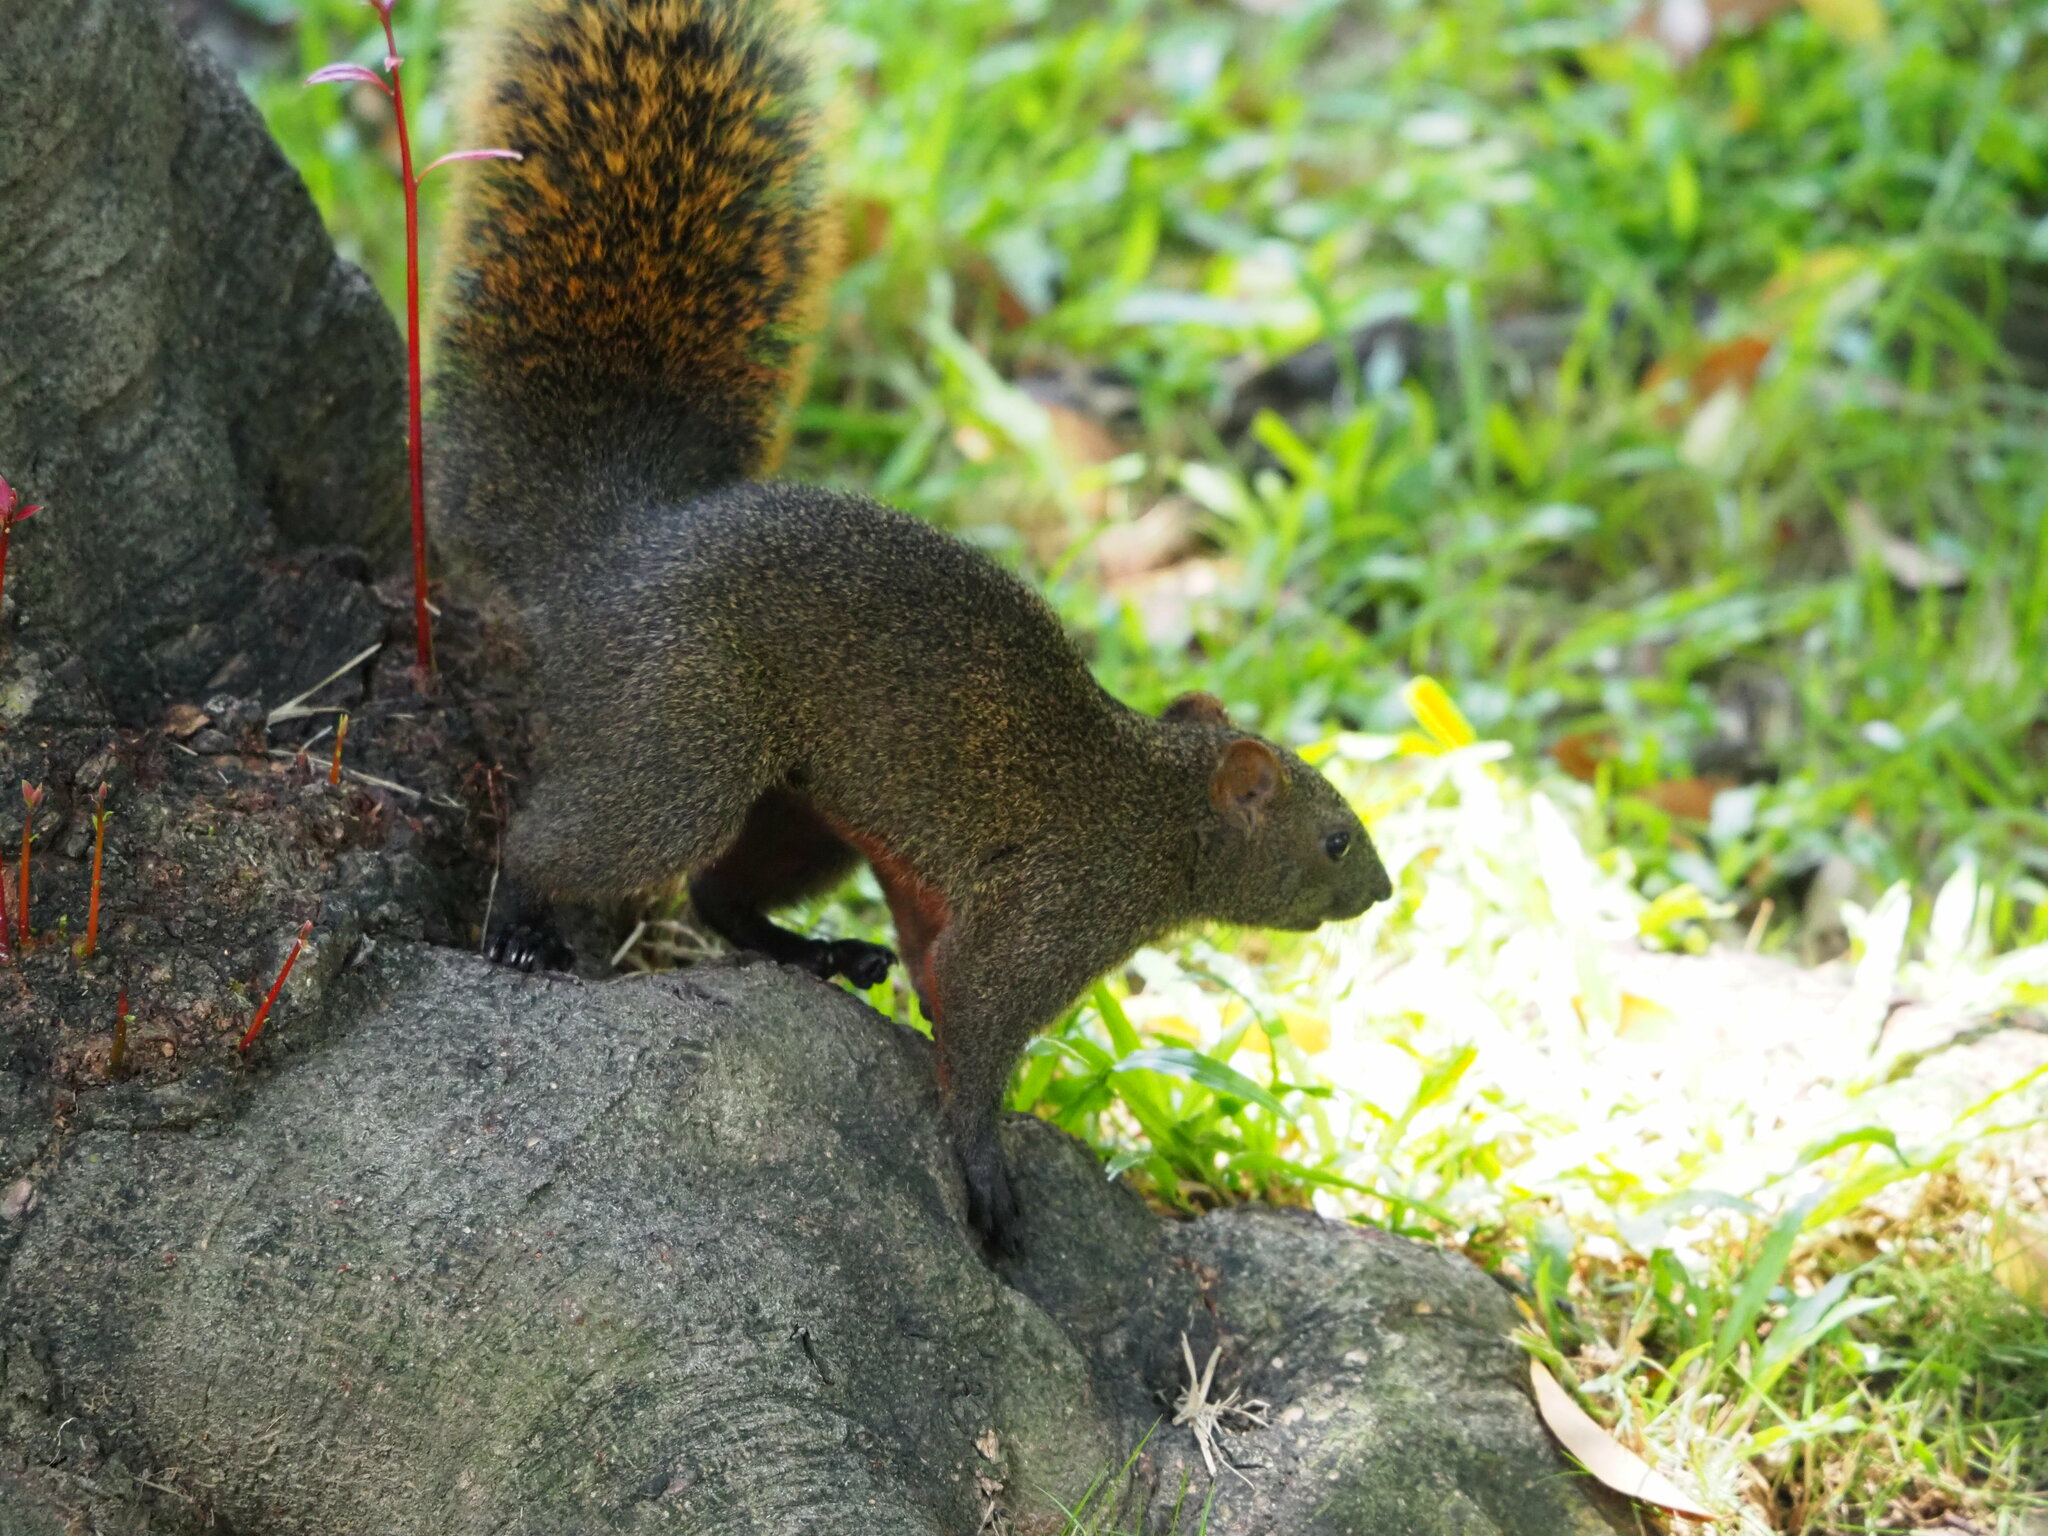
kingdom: Animalia
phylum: Chordata
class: Mammalia
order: Rodentia
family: Sciuridae
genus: Callosciurus
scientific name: Callosciurus erythraeus
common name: Pallas's squirrel
